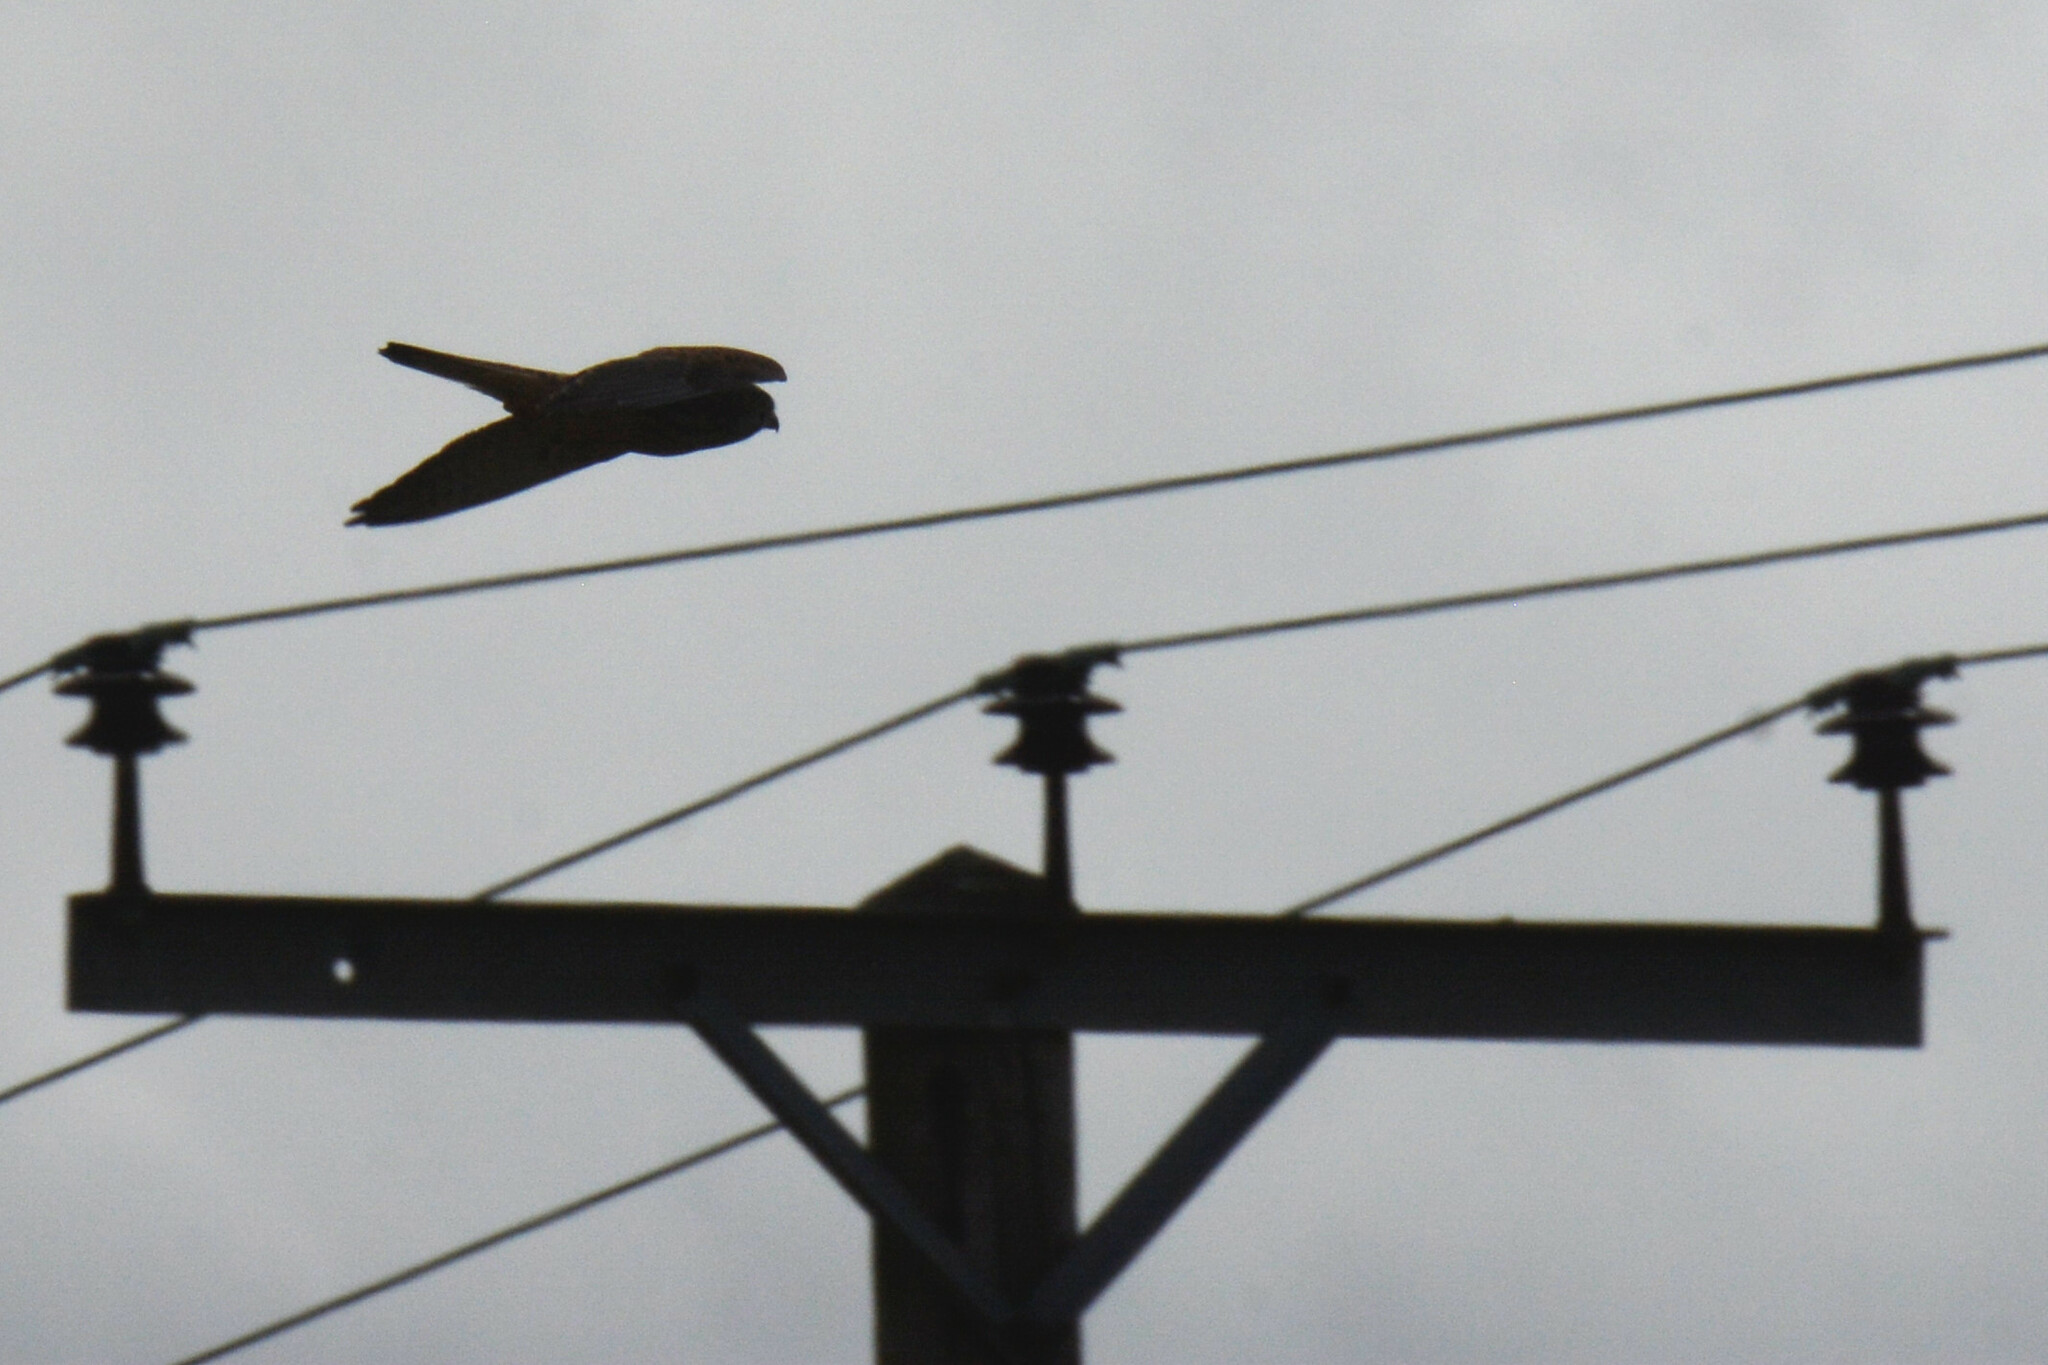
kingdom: Animalia
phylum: Chordata
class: Aves
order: Falconiformes
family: Falconidae
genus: Falco
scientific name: Falco tinnunculus
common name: Common kestrel
